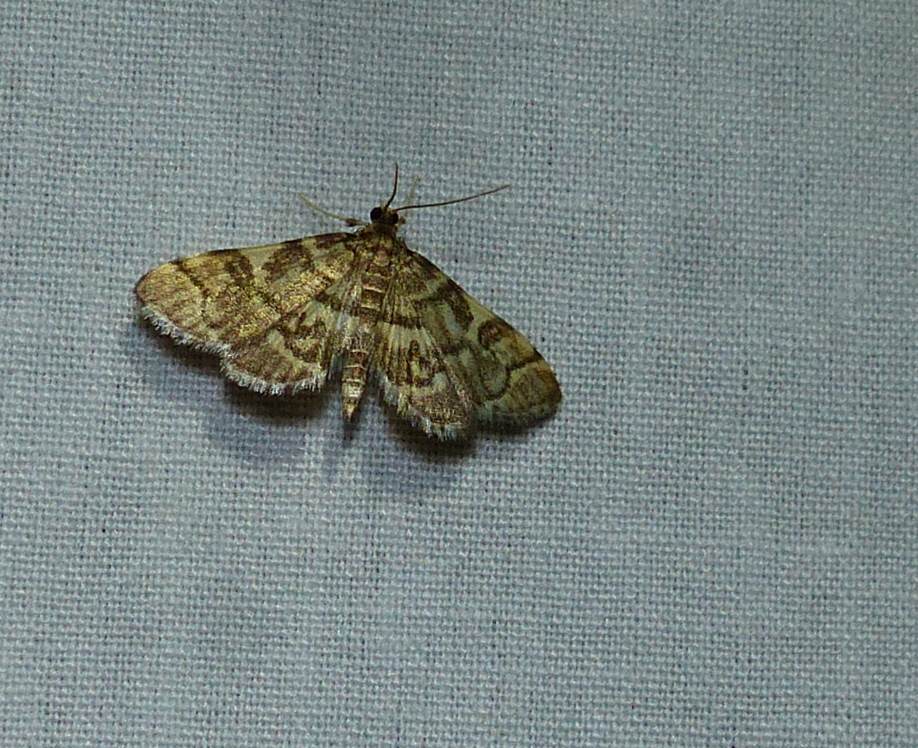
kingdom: Animalia
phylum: Arthropoda
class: Insecta
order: Lepidoptera
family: Crambidae
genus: Anageshna
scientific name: Anageshna primordialis
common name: Yellow-spotted webworm moth
